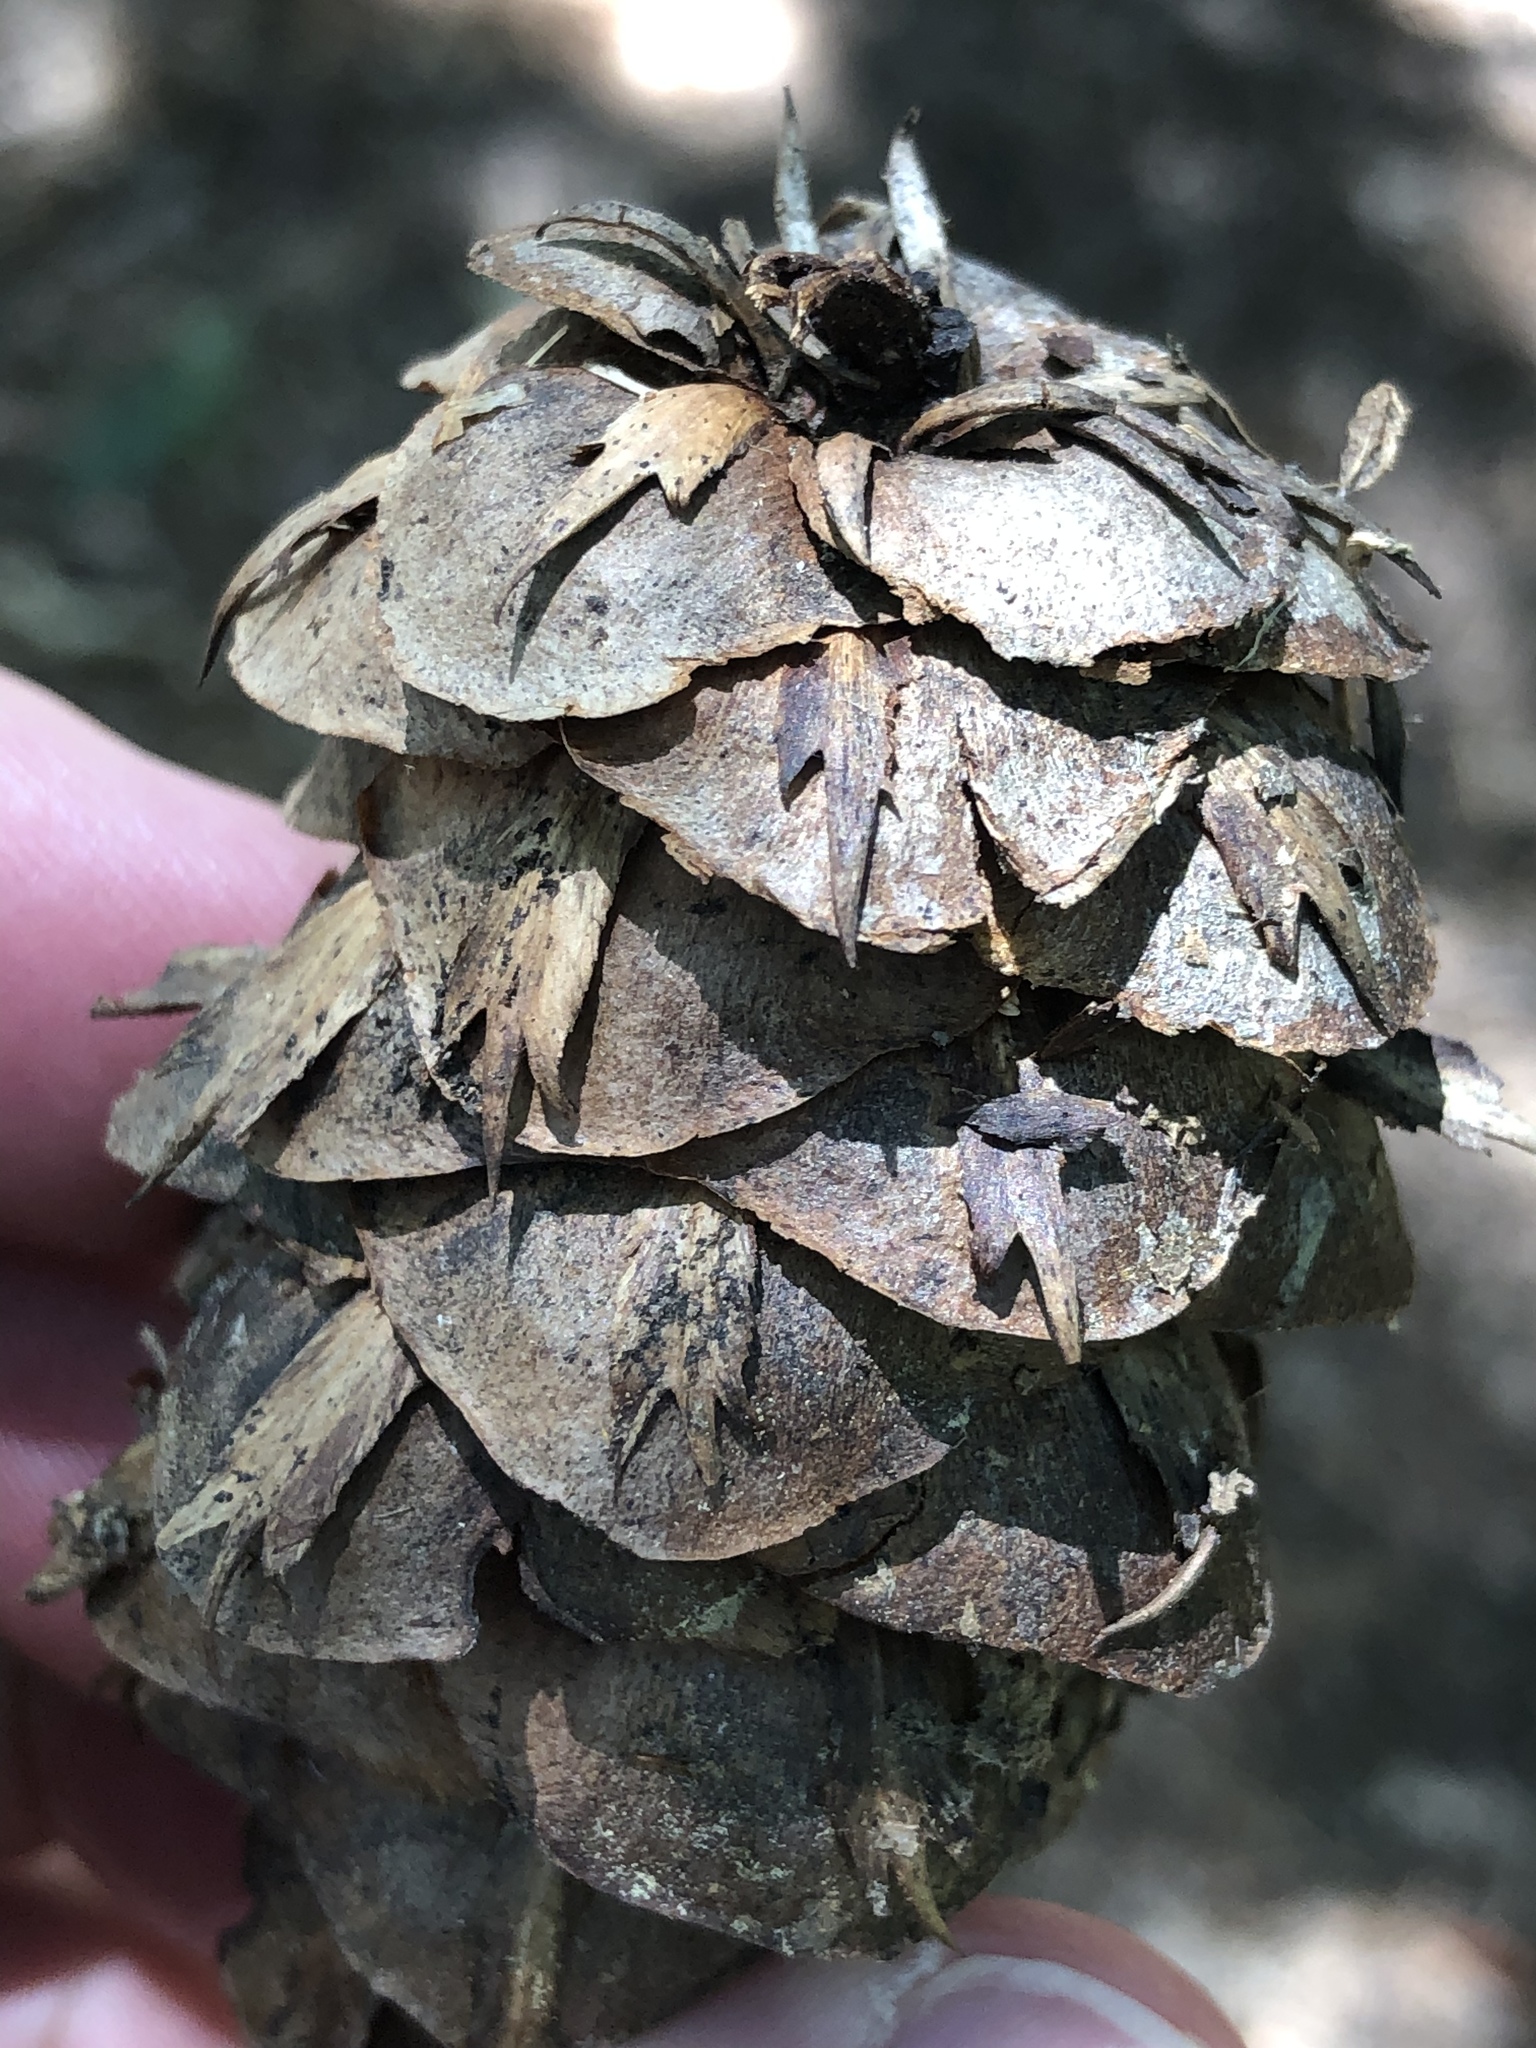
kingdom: Plantae
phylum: Tracheophyta
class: Pinopsida
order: Pinales
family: Pinaceae
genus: Pseudotsuga
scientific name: Pseudotsuga menziesii
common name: Douglas fir
